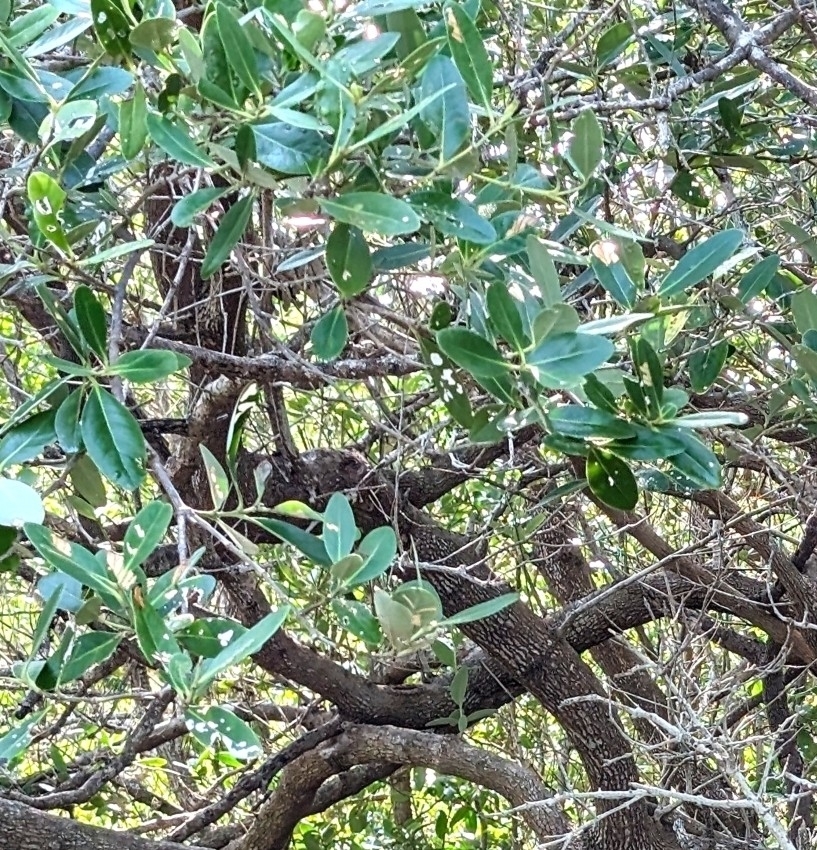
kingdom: Plantae
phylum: Tracheophyta
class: Magnoliopsida
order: Lamiales
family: Acanthaceae
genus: Avicennia
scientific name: Avicennia germinans
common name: Black mangrove
